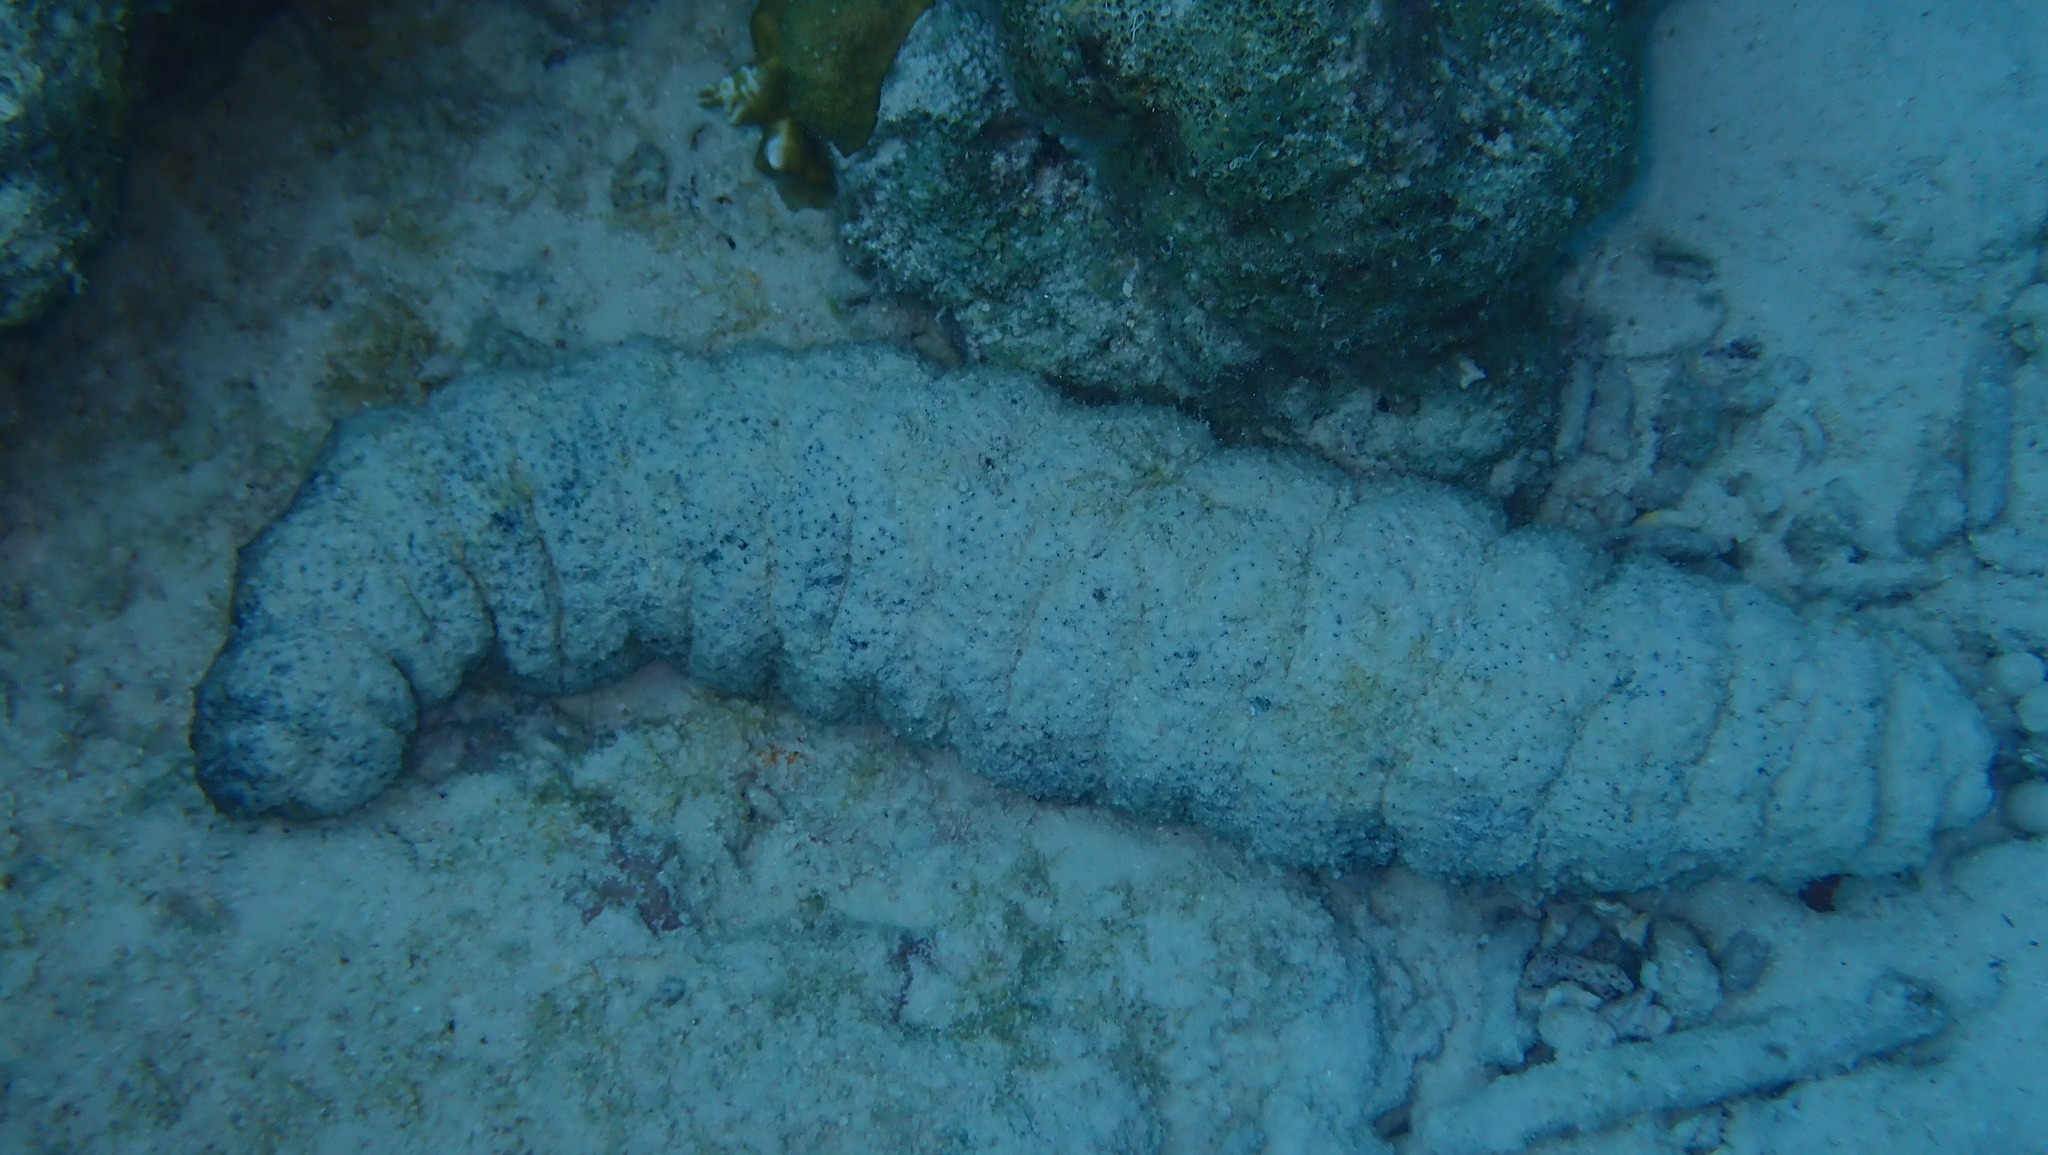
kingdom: Animalia
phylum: Echinodermata
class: Holothuroidea
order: Holothuriida
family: Holothuriidae
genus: Holothuria
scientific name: Holothuria mexicana
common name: Donkey dung sea cucumber
